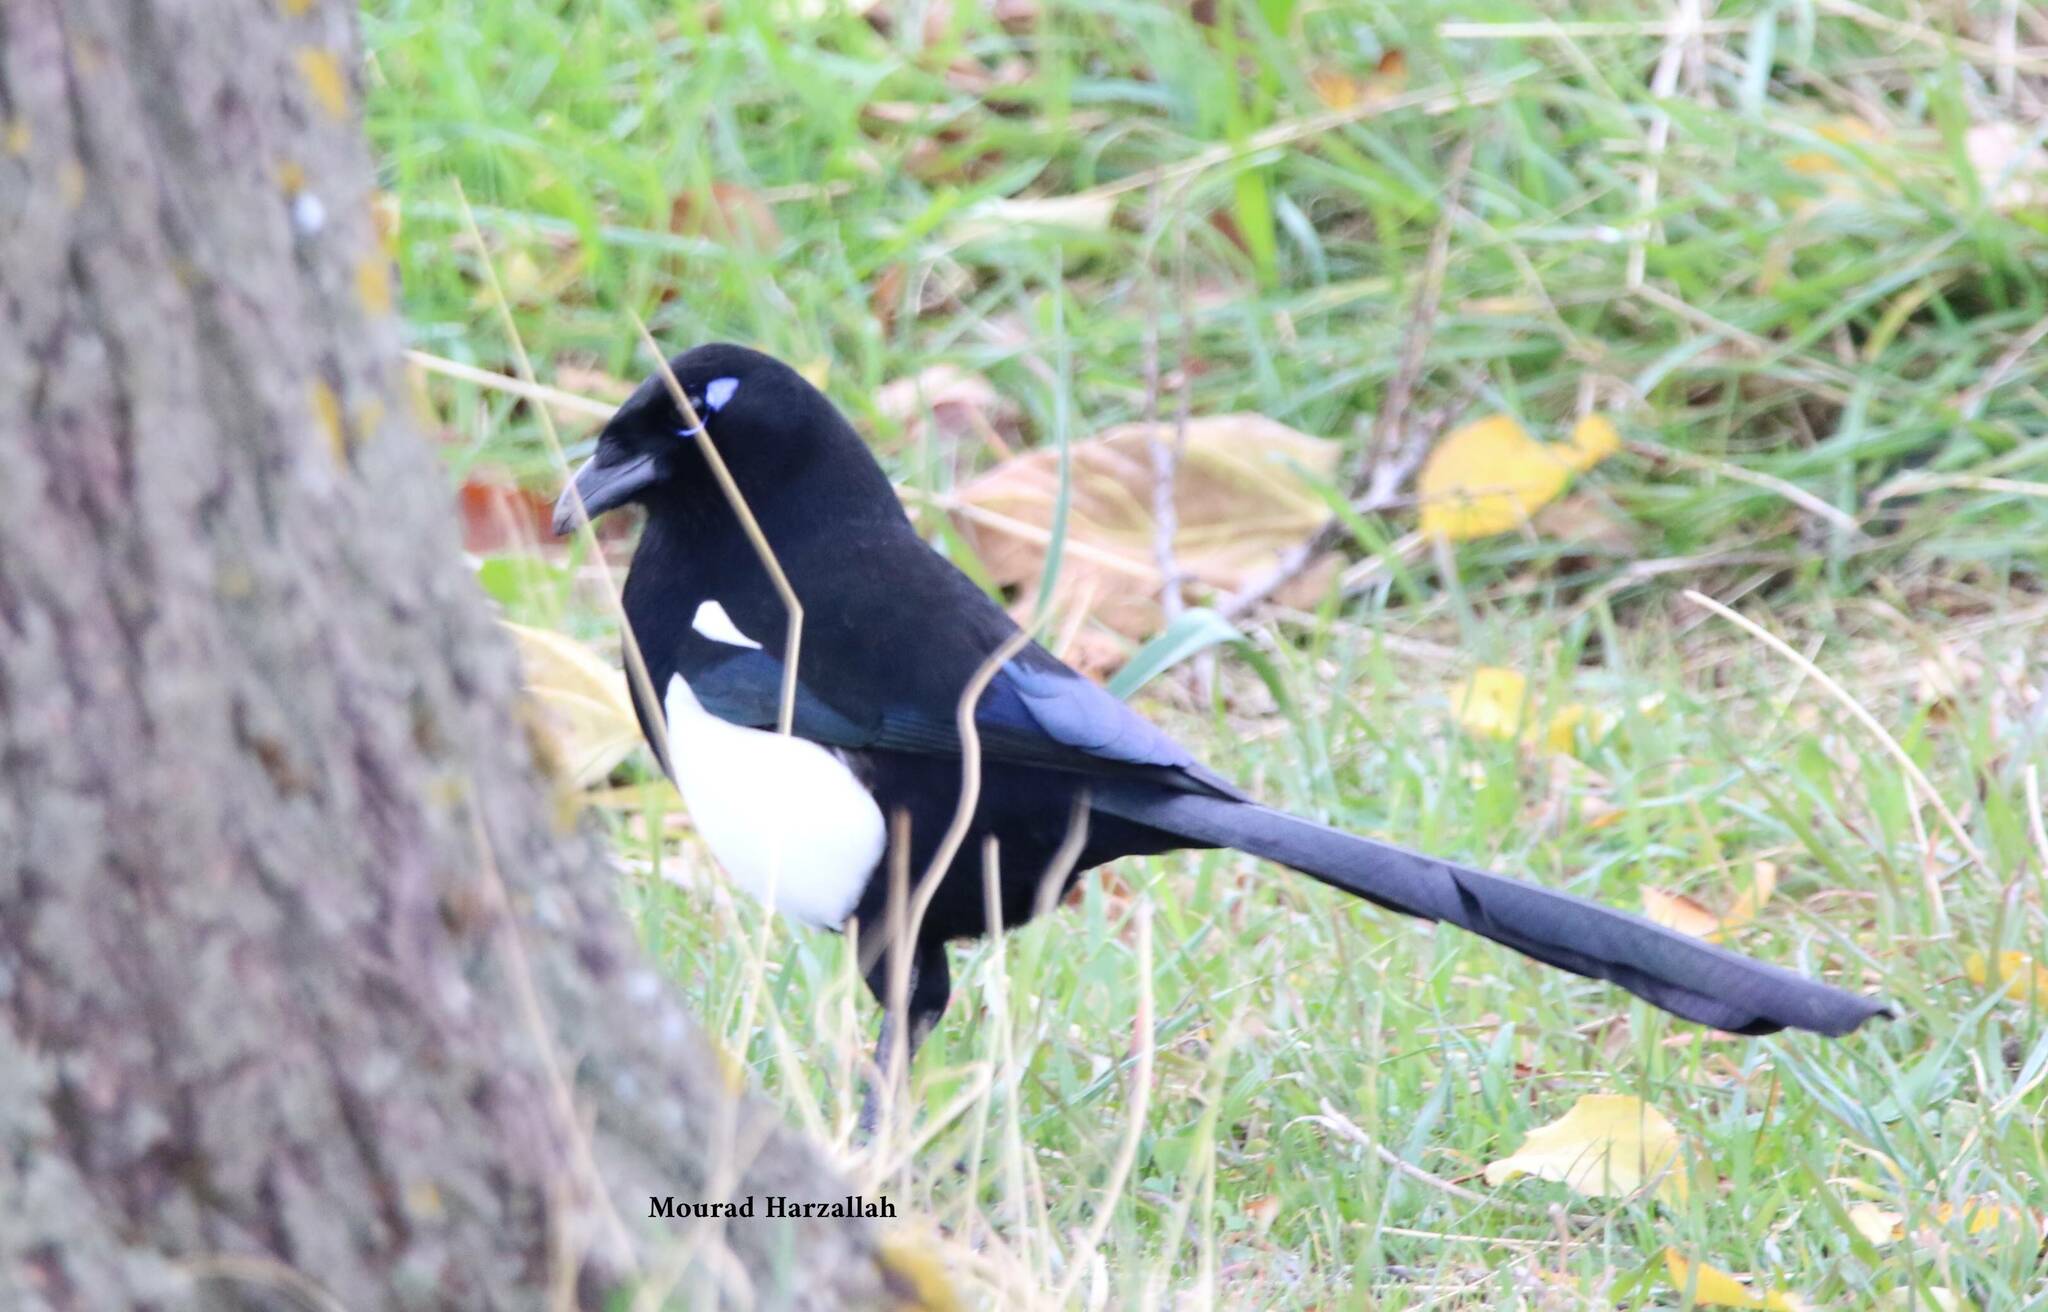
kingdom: Animalia
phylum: Chordata
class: Aves
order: Passeriformes
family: Corvidae
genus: Pica
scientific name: Pica mauritanica
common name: Maghreb magpie
